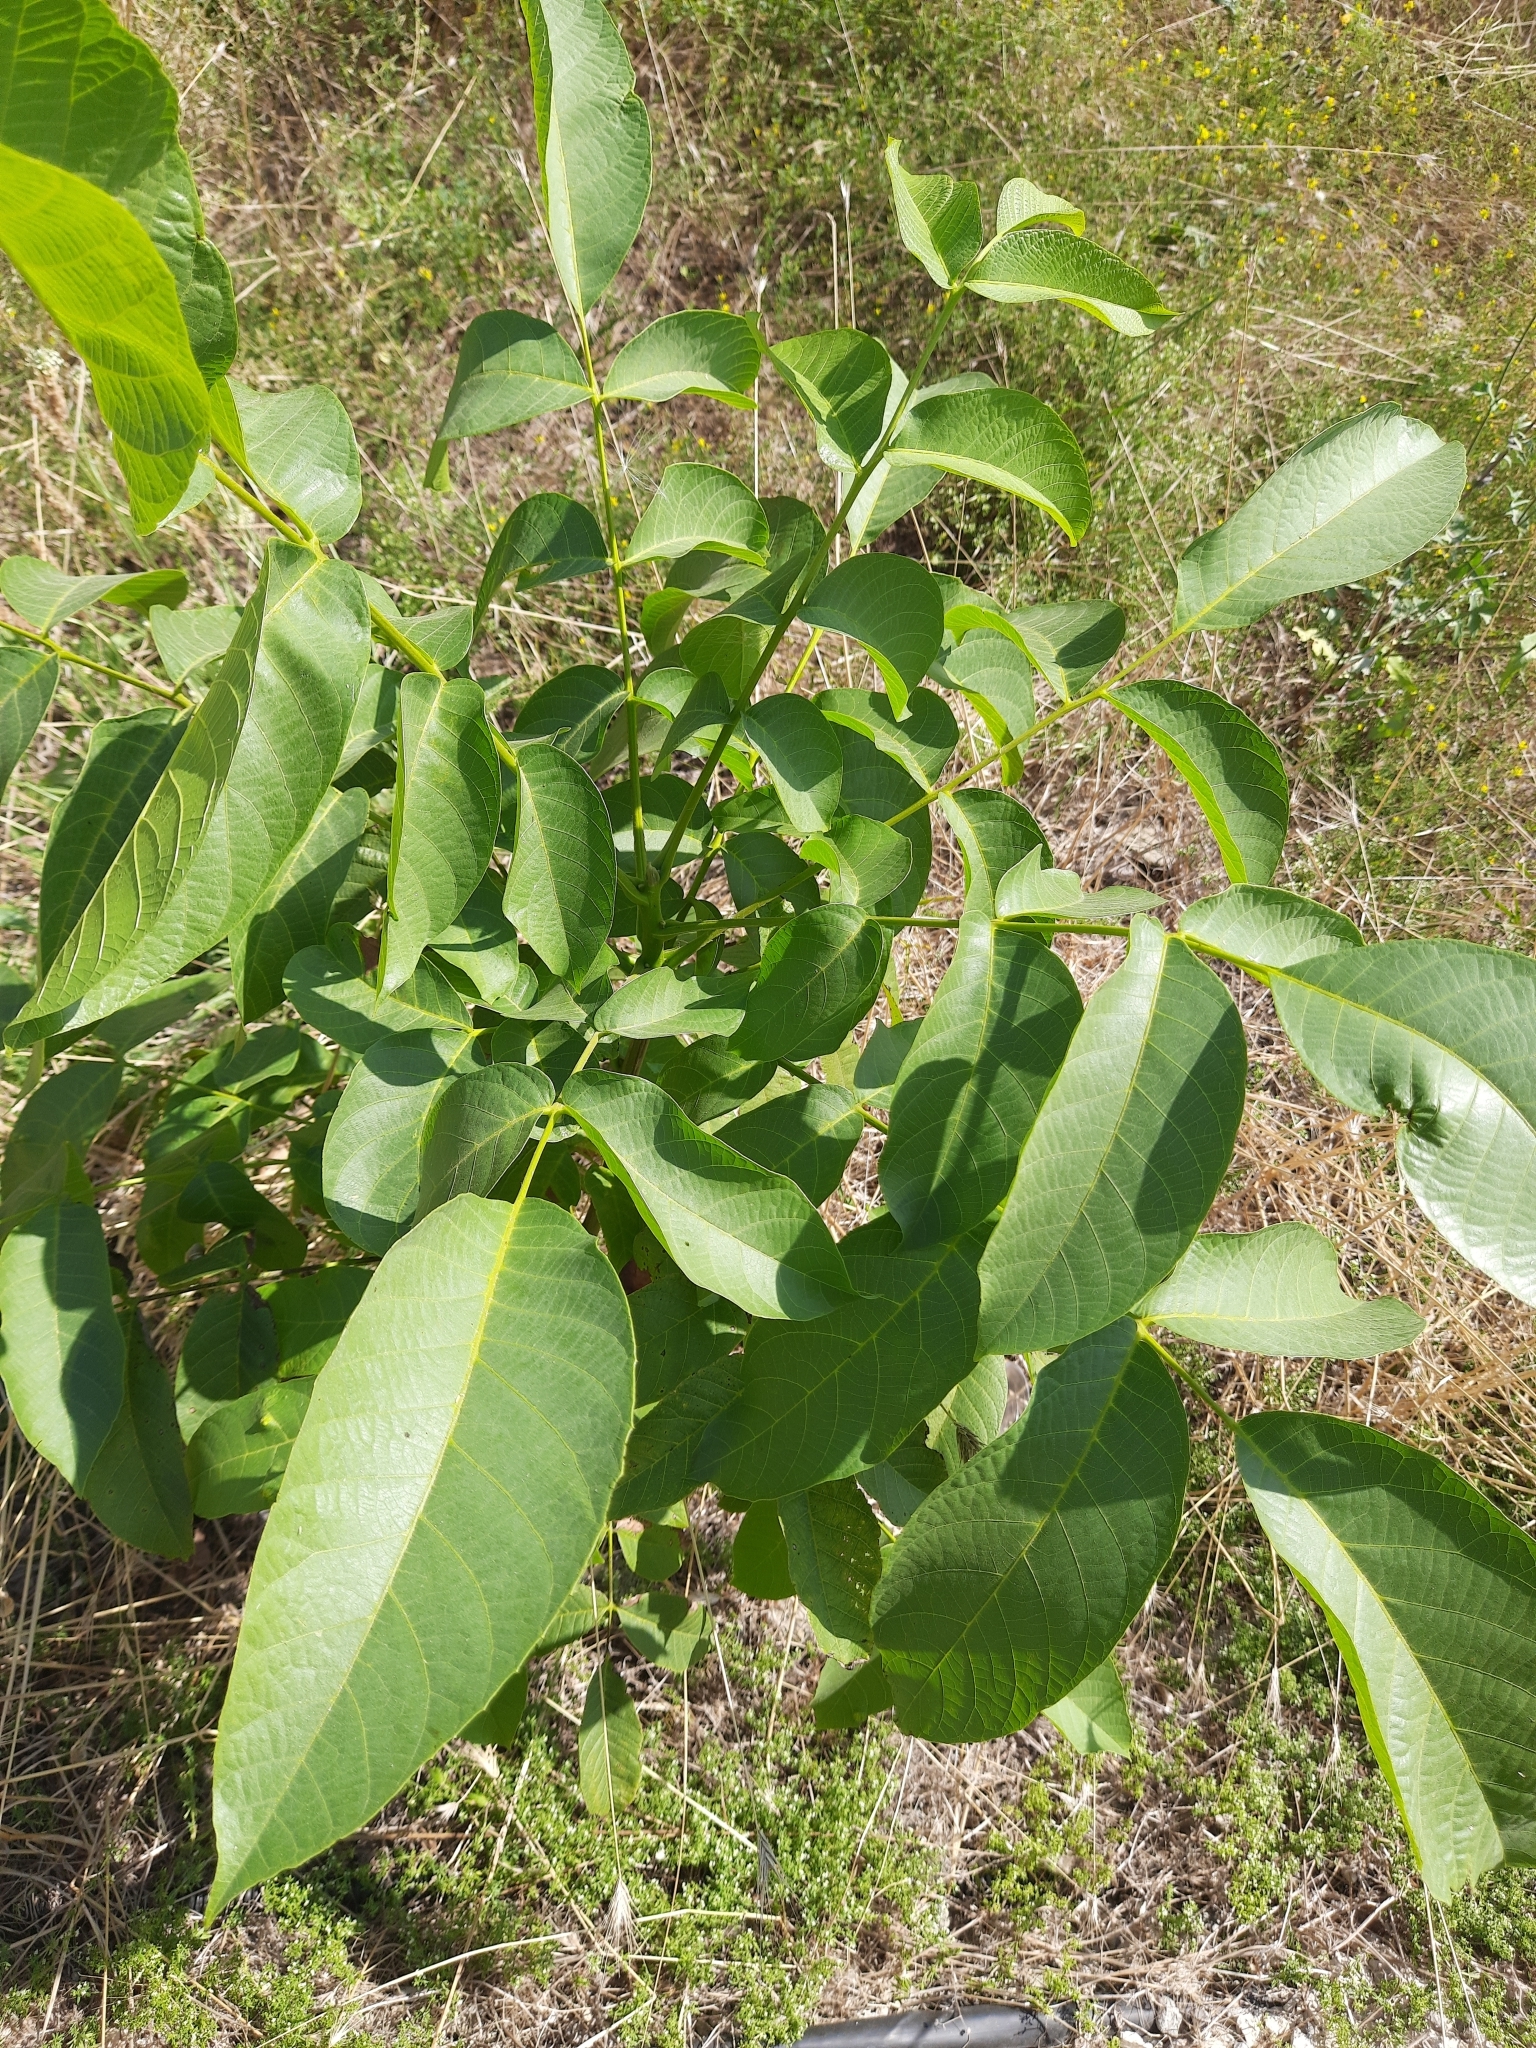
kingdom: Plantae
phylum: Tracheophyta
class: Magnoliopsida
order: Fagales
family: Juglandaceae
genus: Juglans
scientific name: Juglans regia
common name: Walnut
